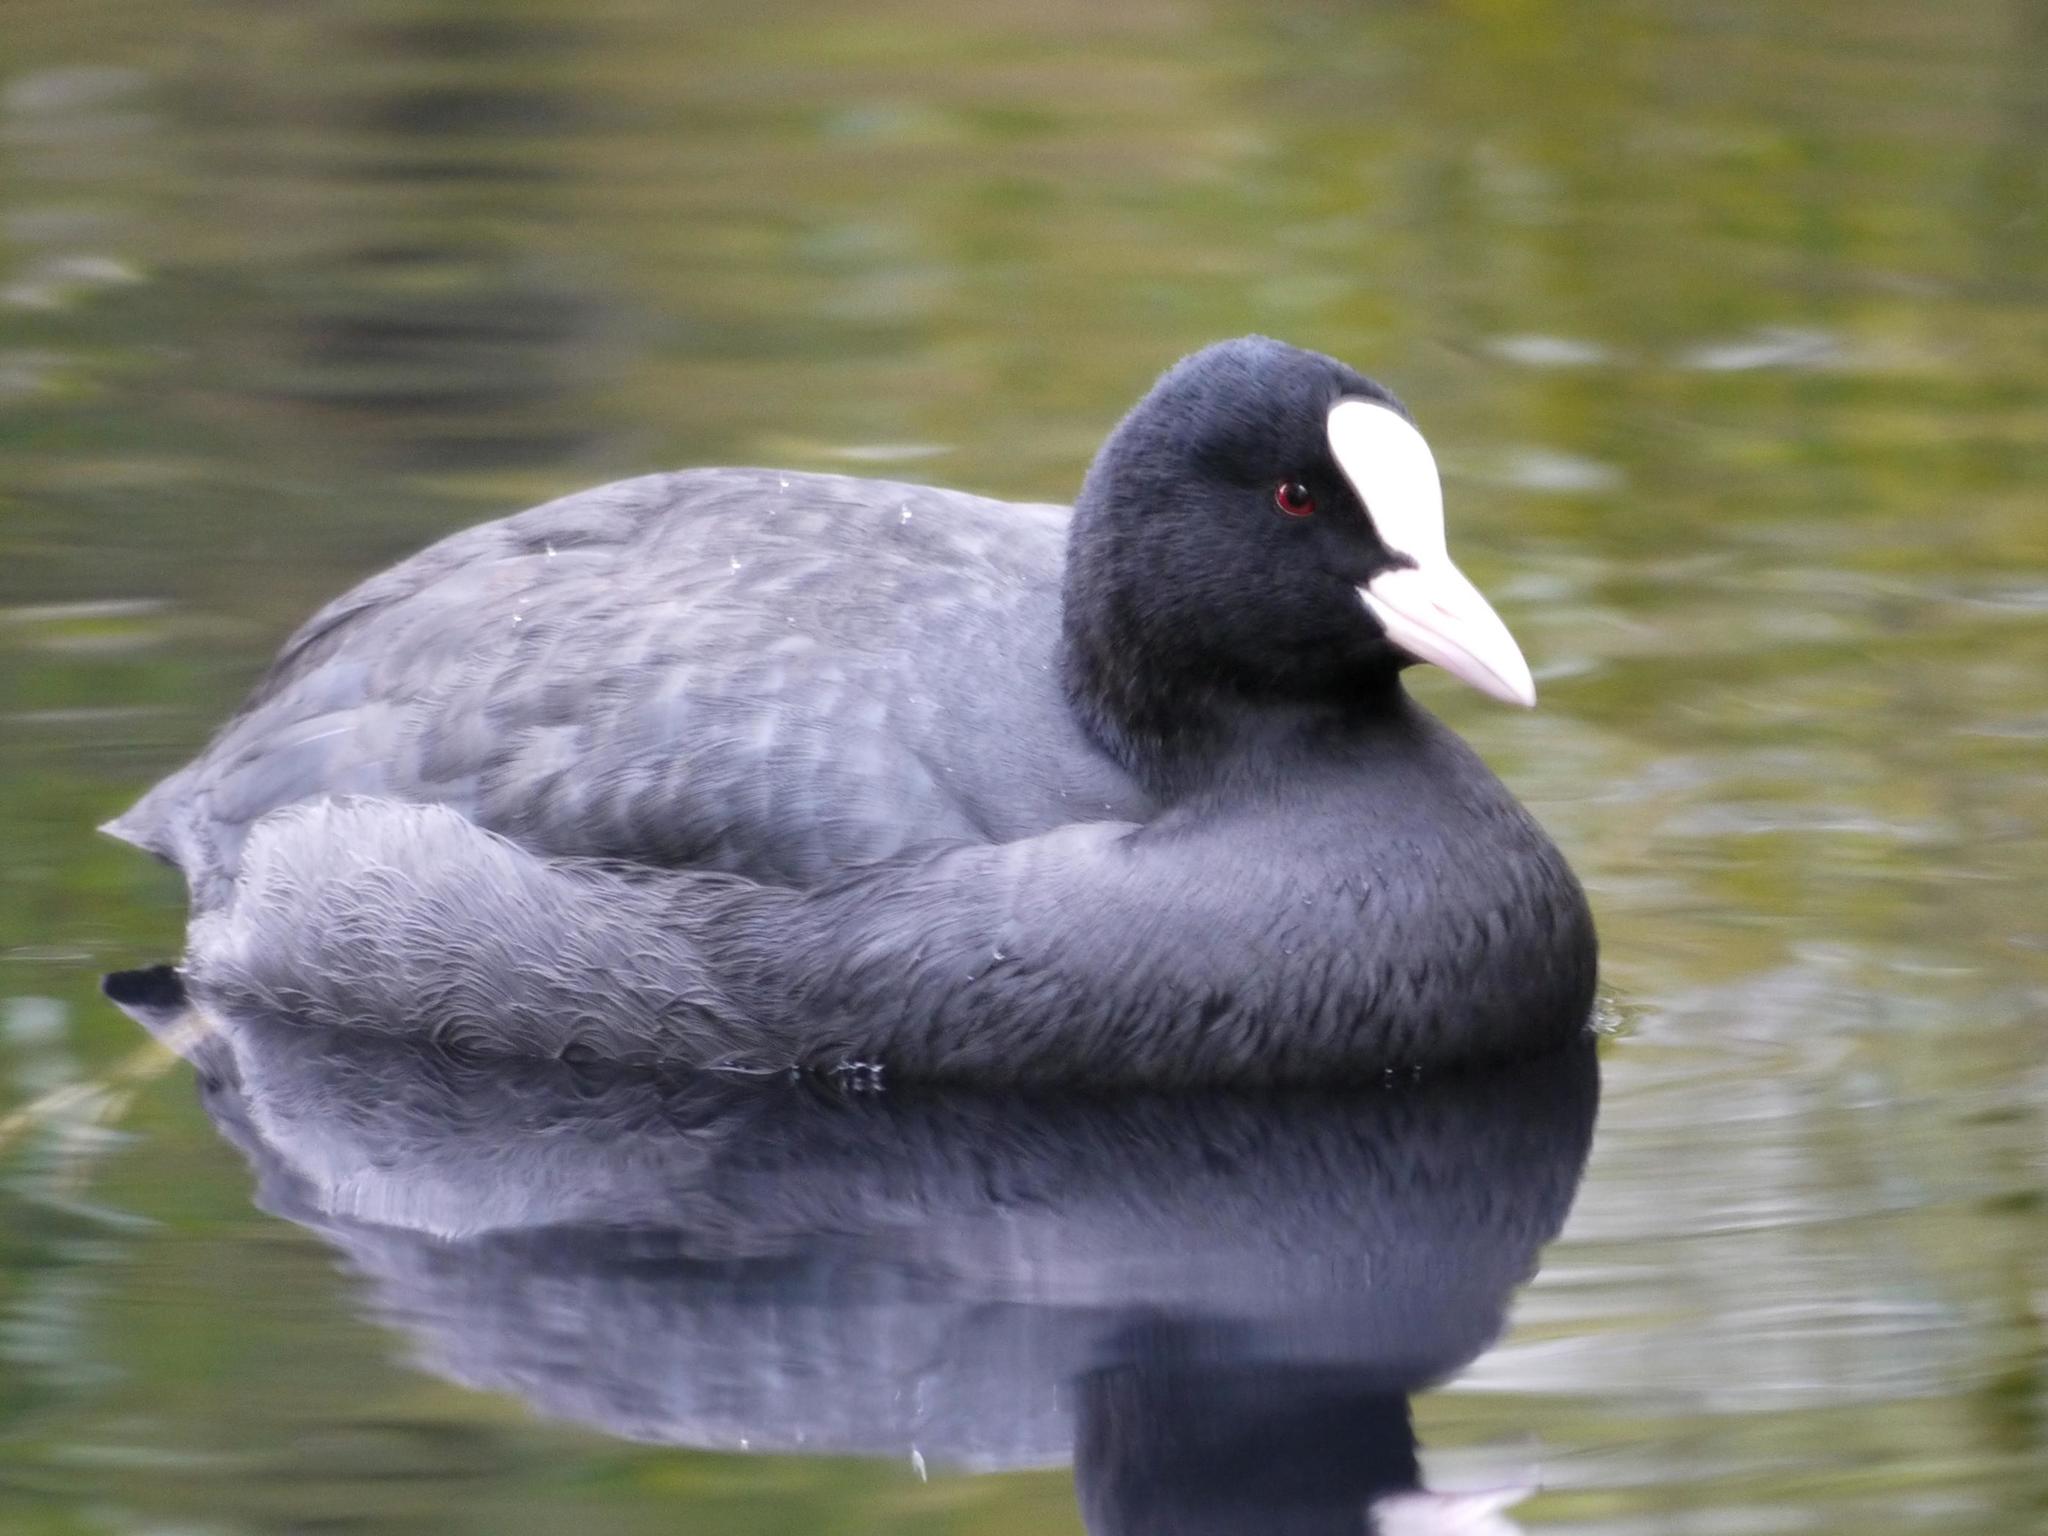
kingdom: Animalia
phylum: Chordata
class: Aves
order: Gruiformes
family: Rallidae
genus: Fulica
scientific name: Fulica atra
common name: Eurasian coot
